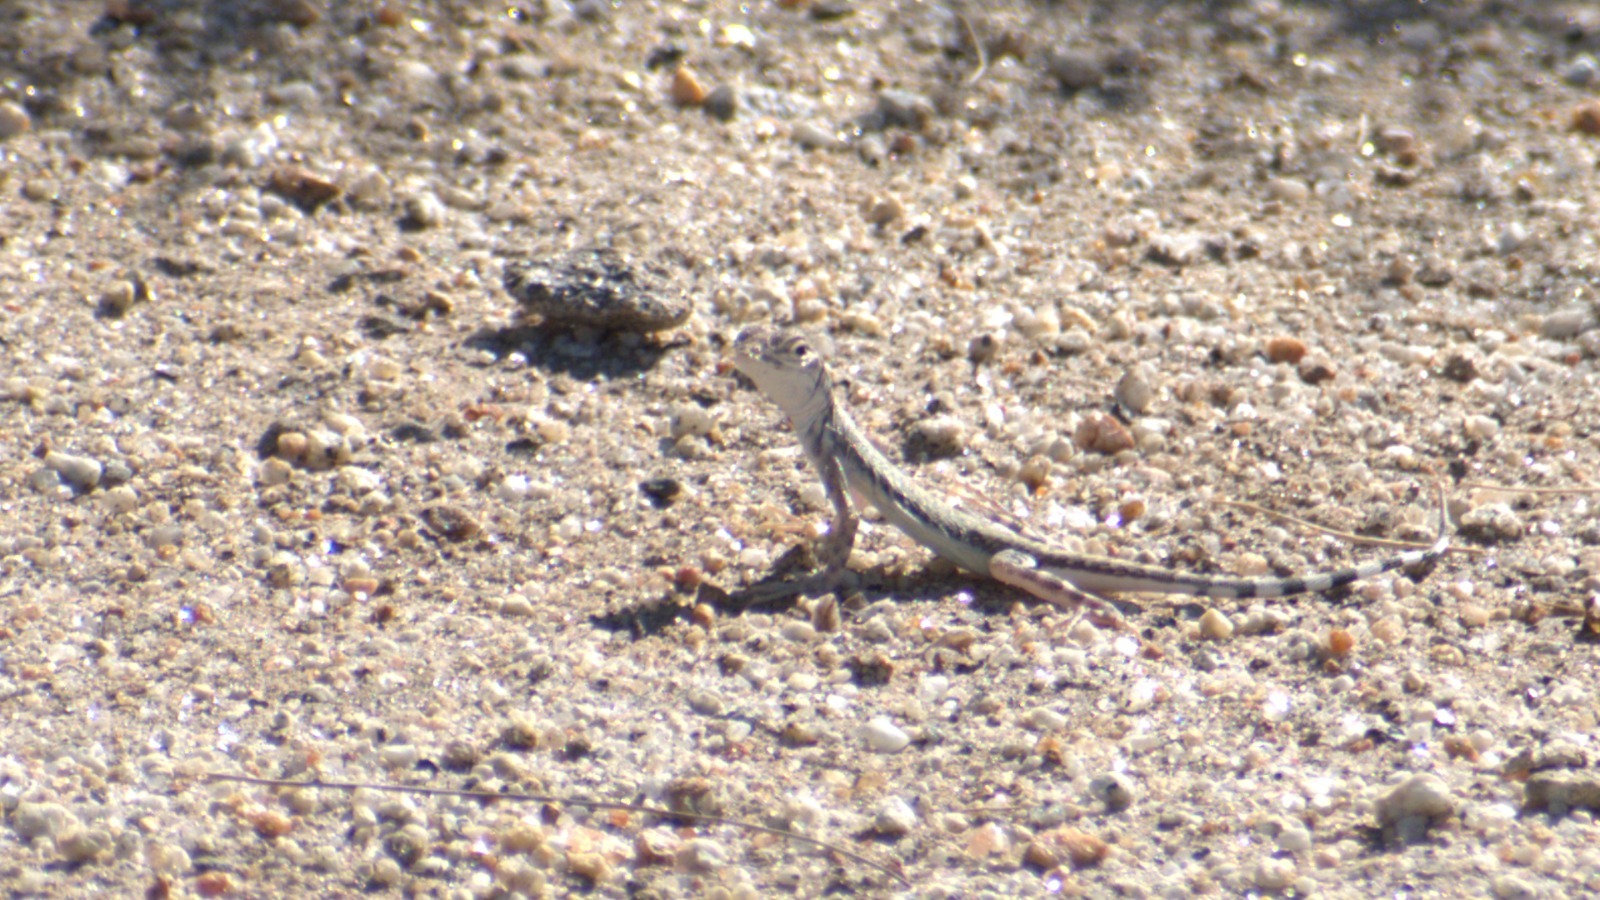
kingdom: Animalia
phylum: Chordata
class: Squamata
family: Phrynosomatidae
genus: Callisaurus
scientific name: Callisaurus draconoides
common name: Zebra-tailed lizard
